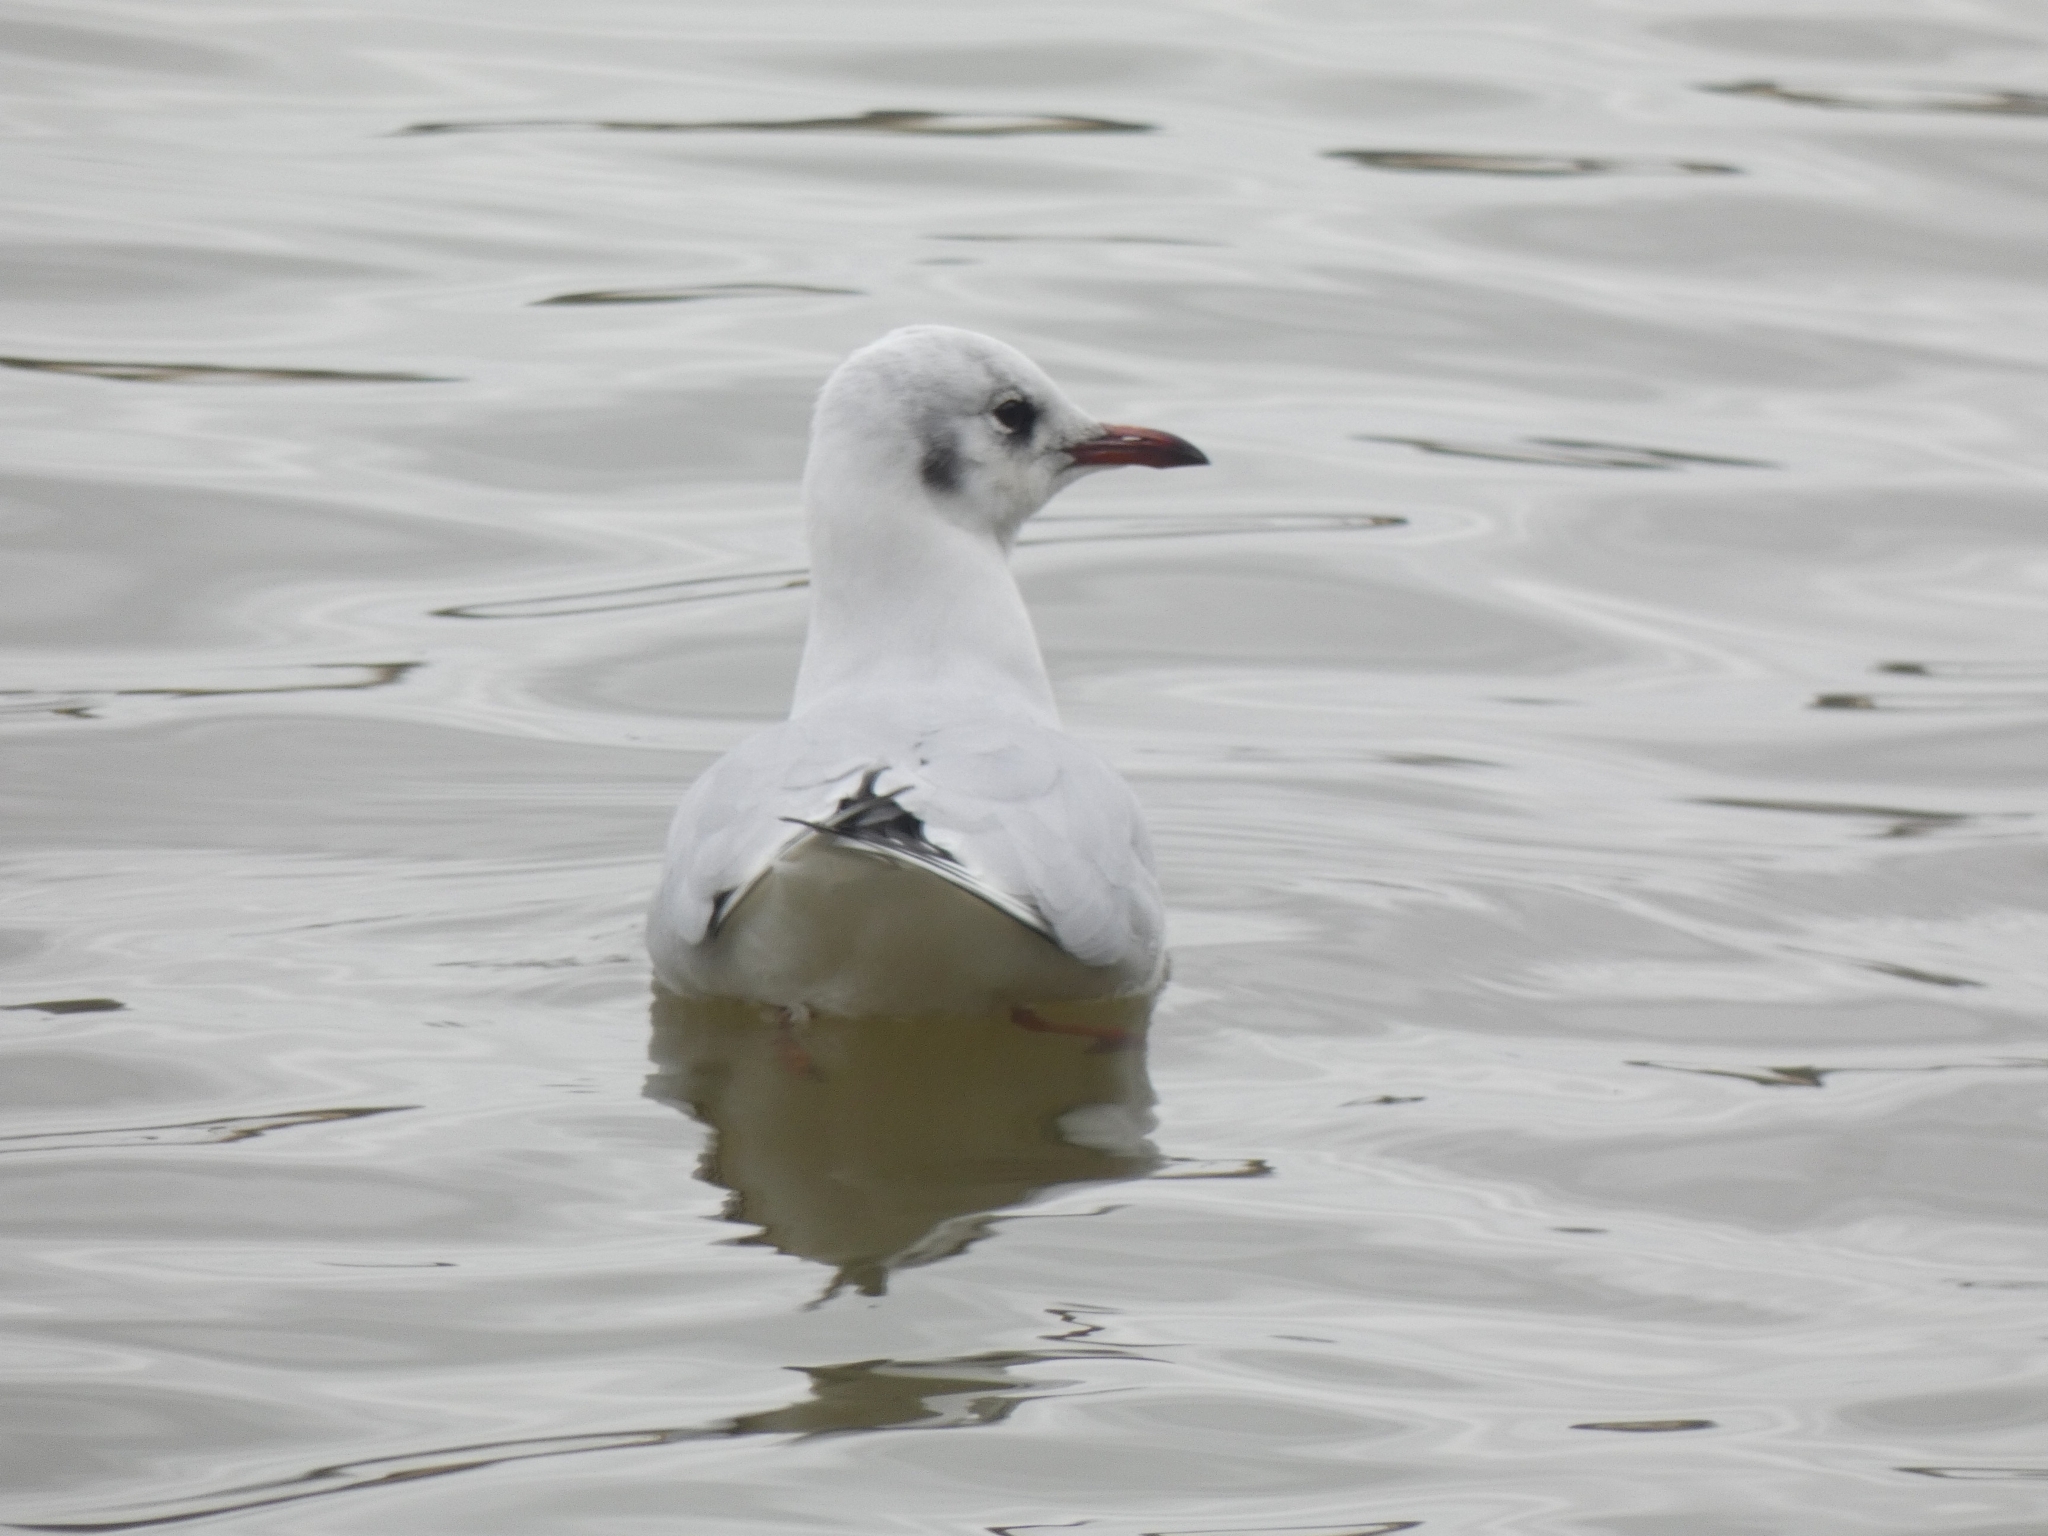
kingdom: Animalia
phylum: Chordata
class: Aves
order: Charadriiformes
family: Laridae
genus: Chroicocephalus
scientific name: Chroicocephalus ridibundus
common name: Black-headed gull
